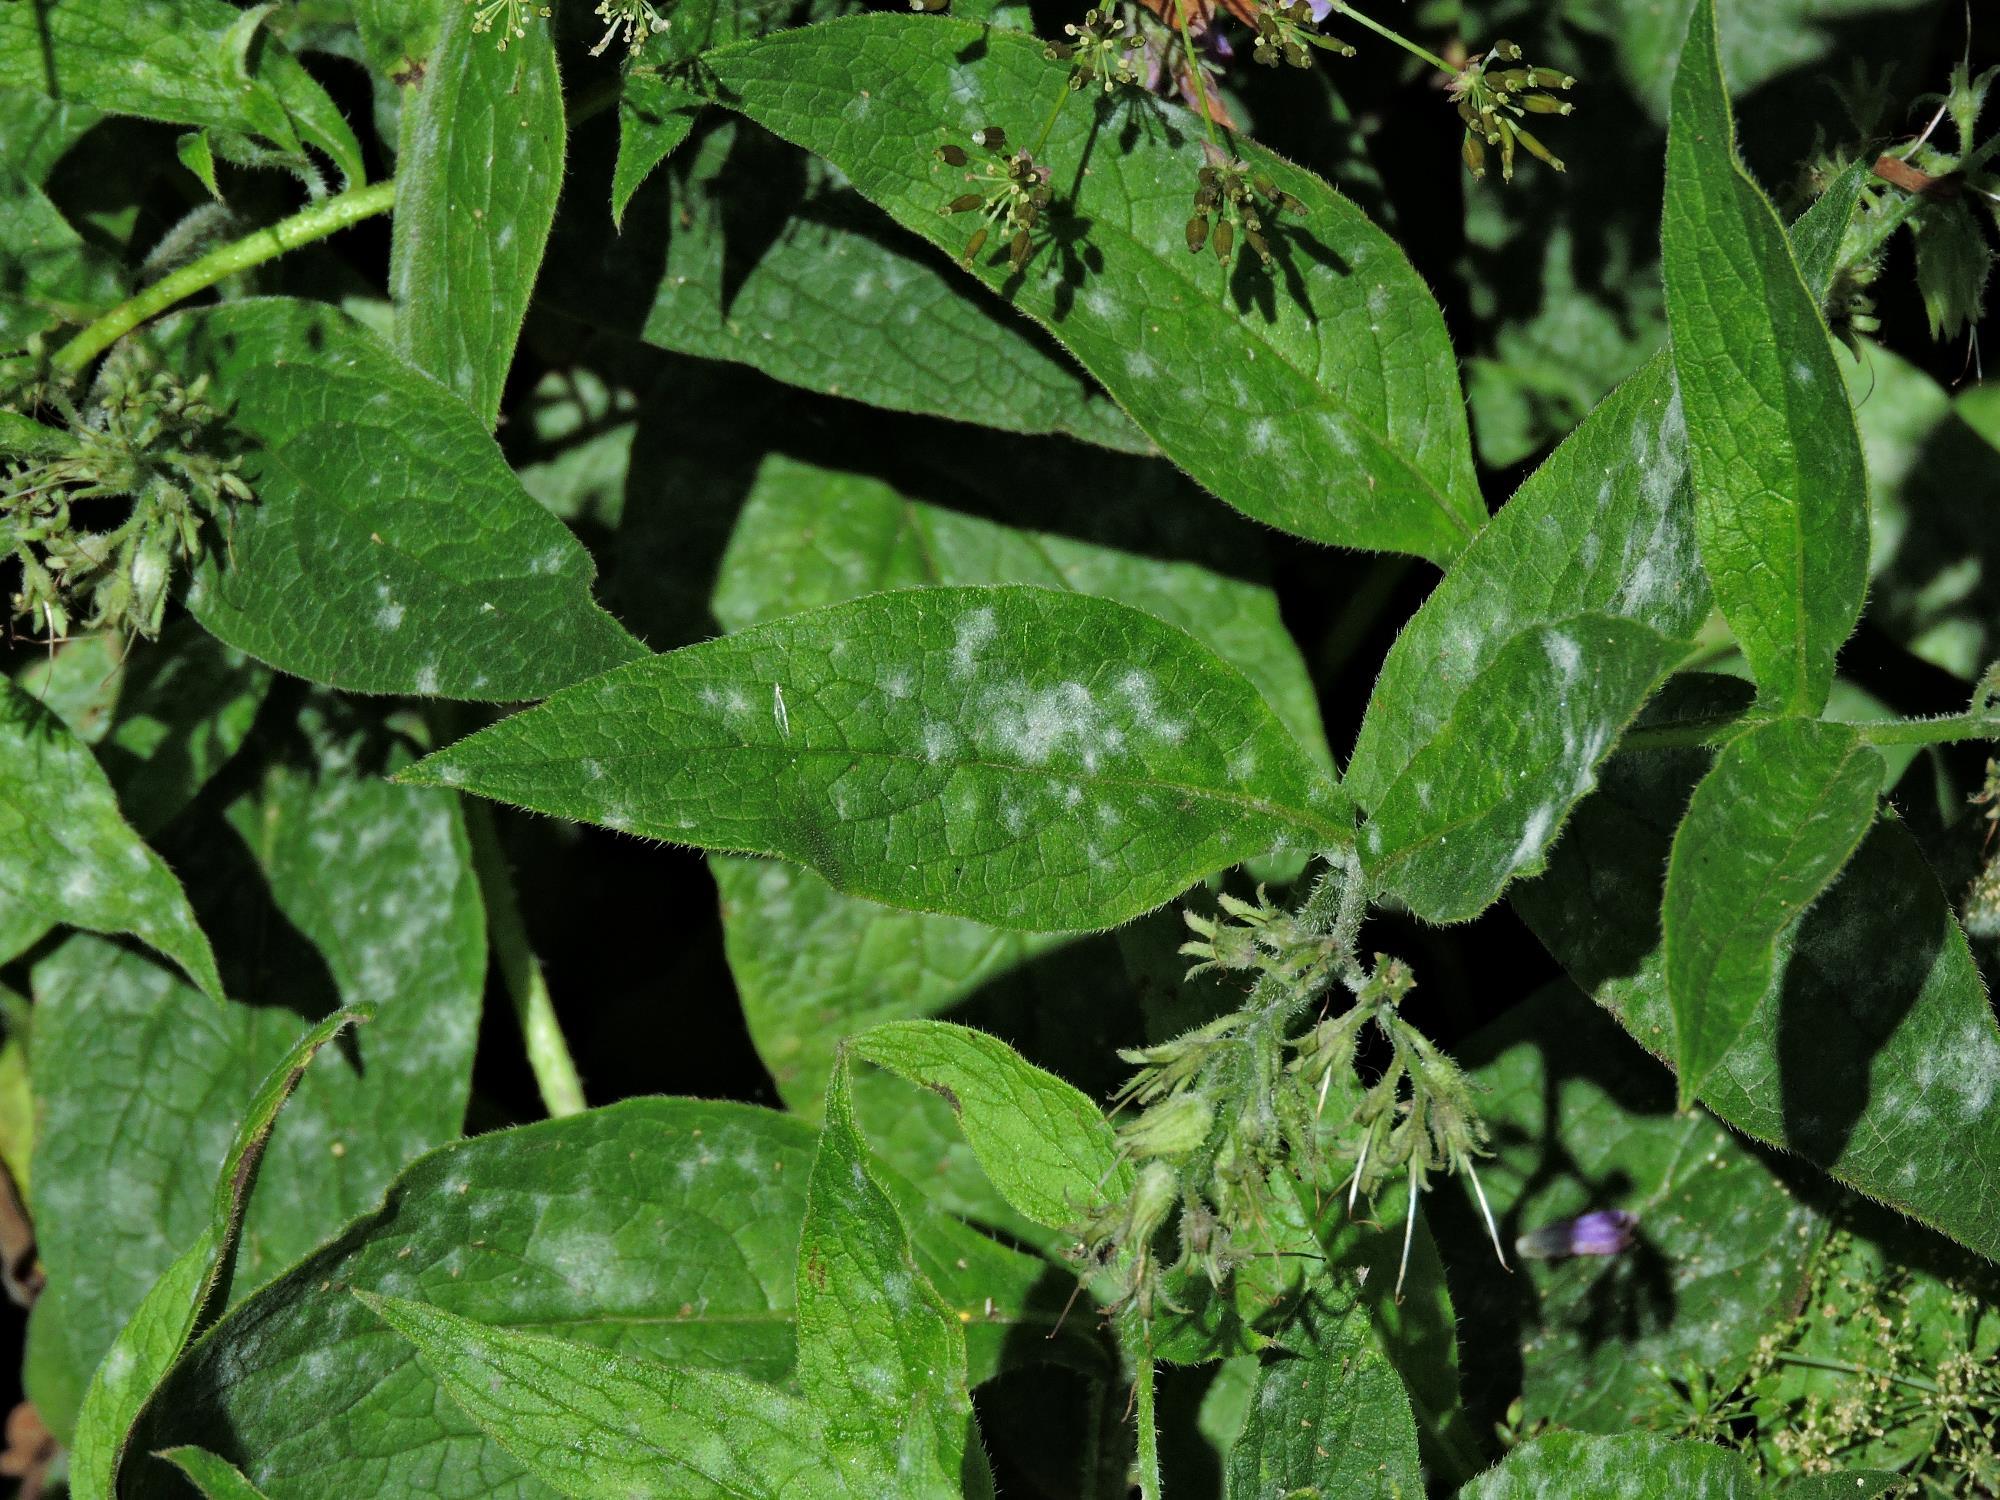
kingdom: Fungi
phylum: Ascomycota
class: Leotiomycetes
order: Helotiales
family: Erysiphaceae
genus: Golovinomyces
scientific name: Golovinomyces asperifoliorum
